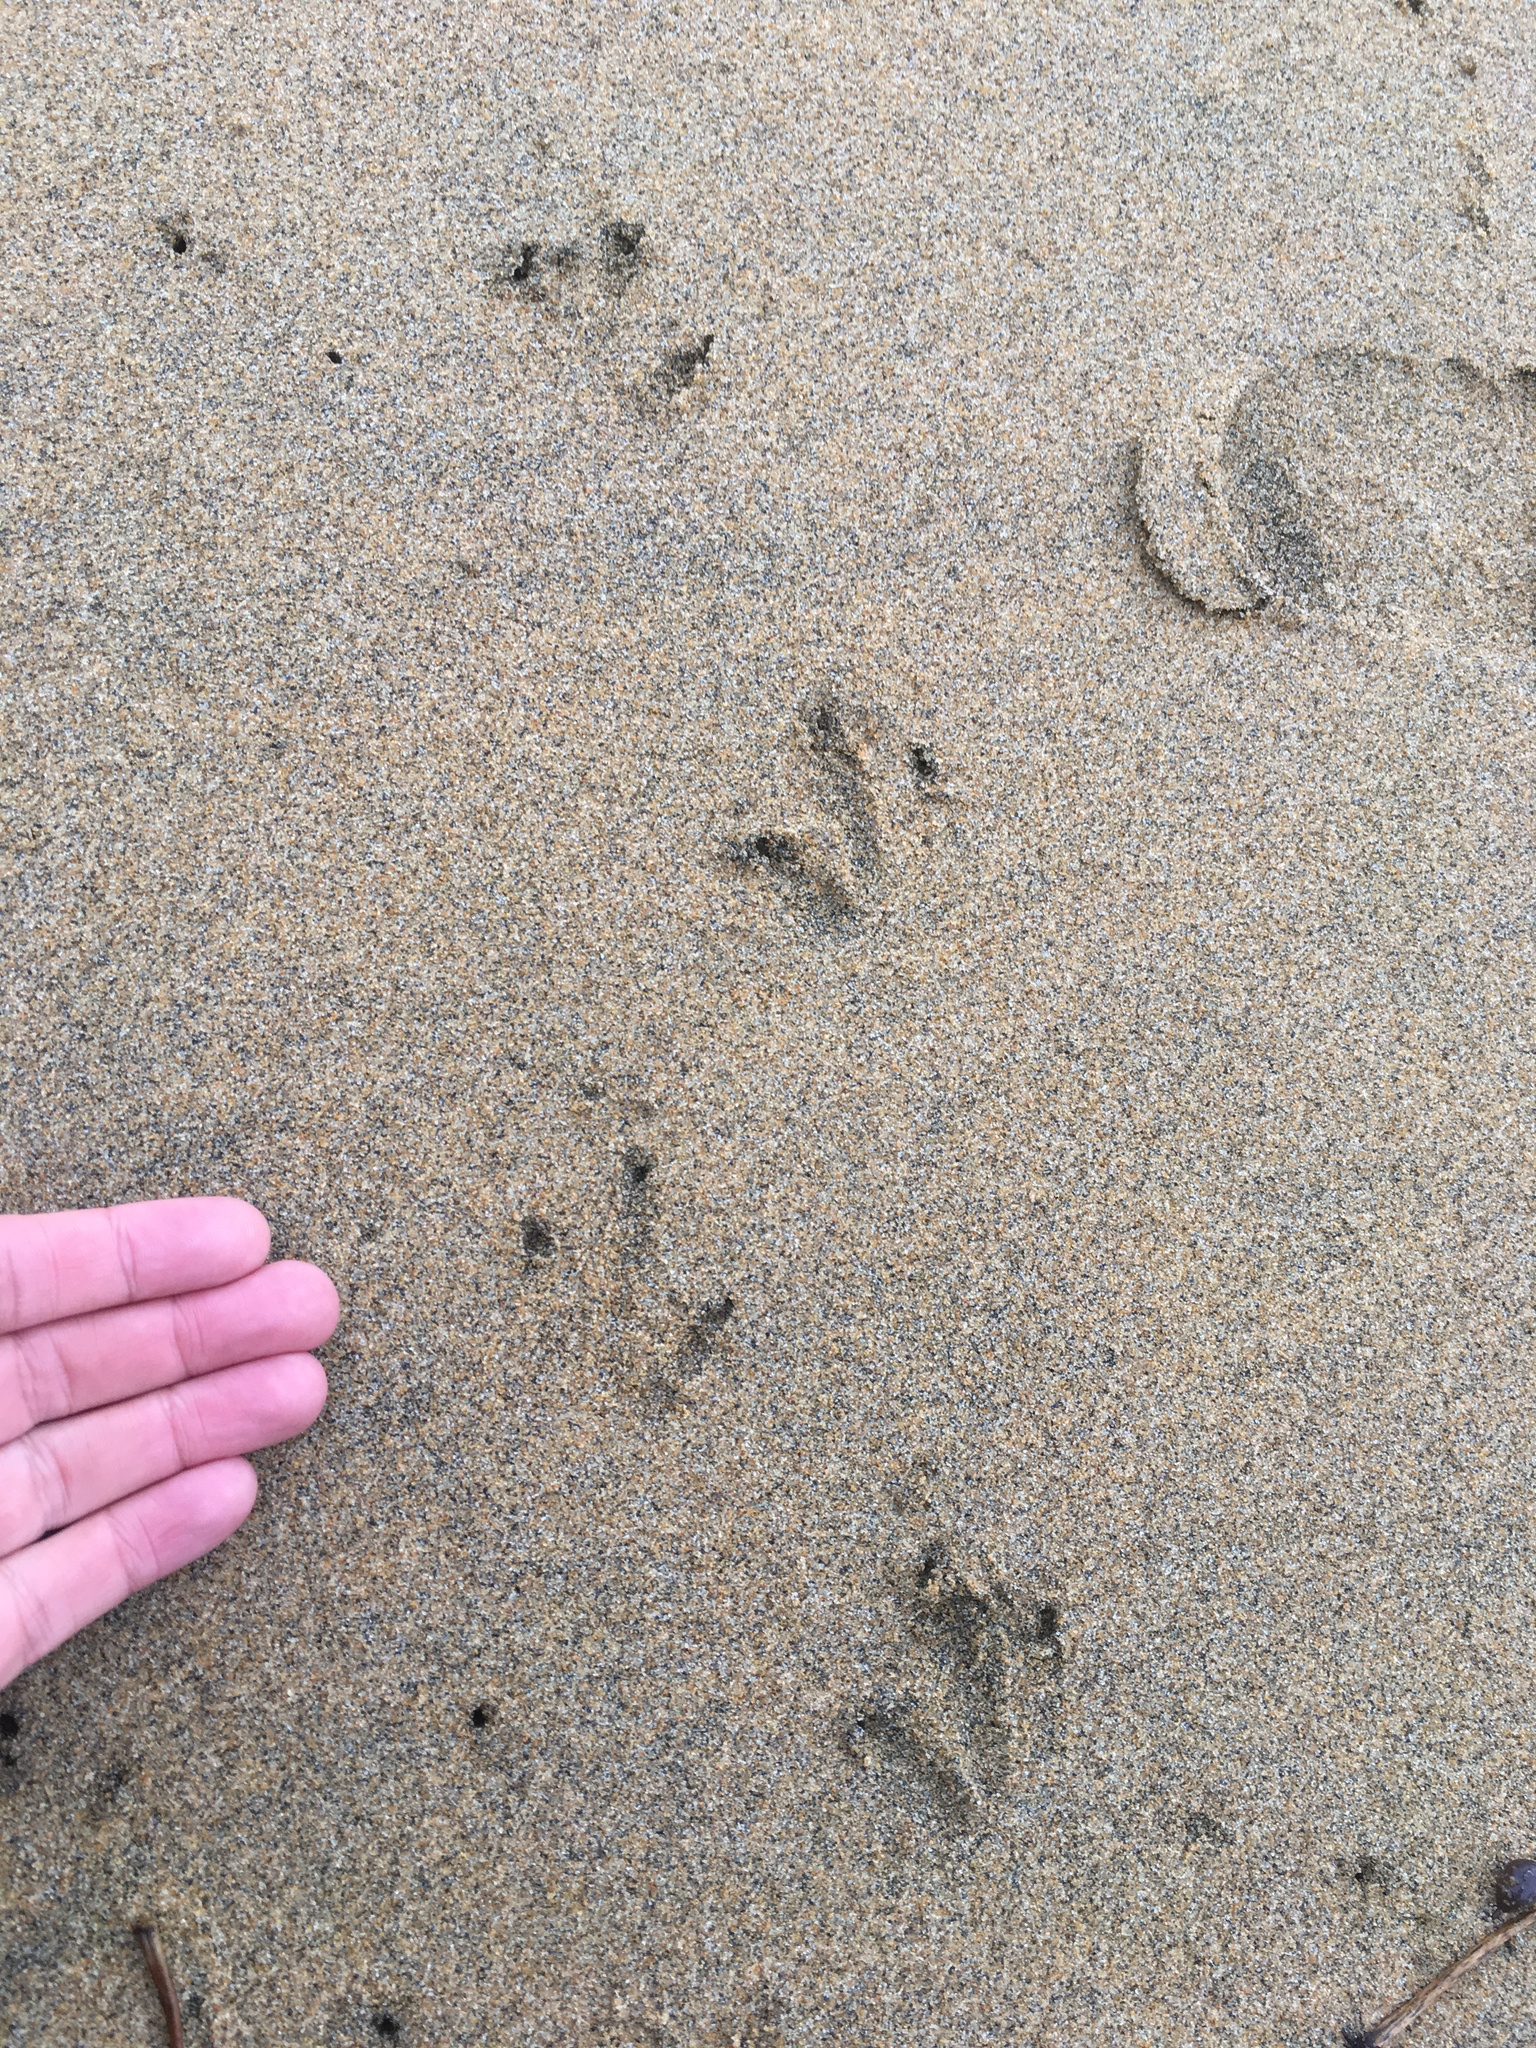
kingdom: Animalia
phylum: Chordata
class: Aves
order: Sphenisciformes
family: Spheniscidae
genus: Eudyptula
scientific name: Eudyptula minor
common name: Little penguin
